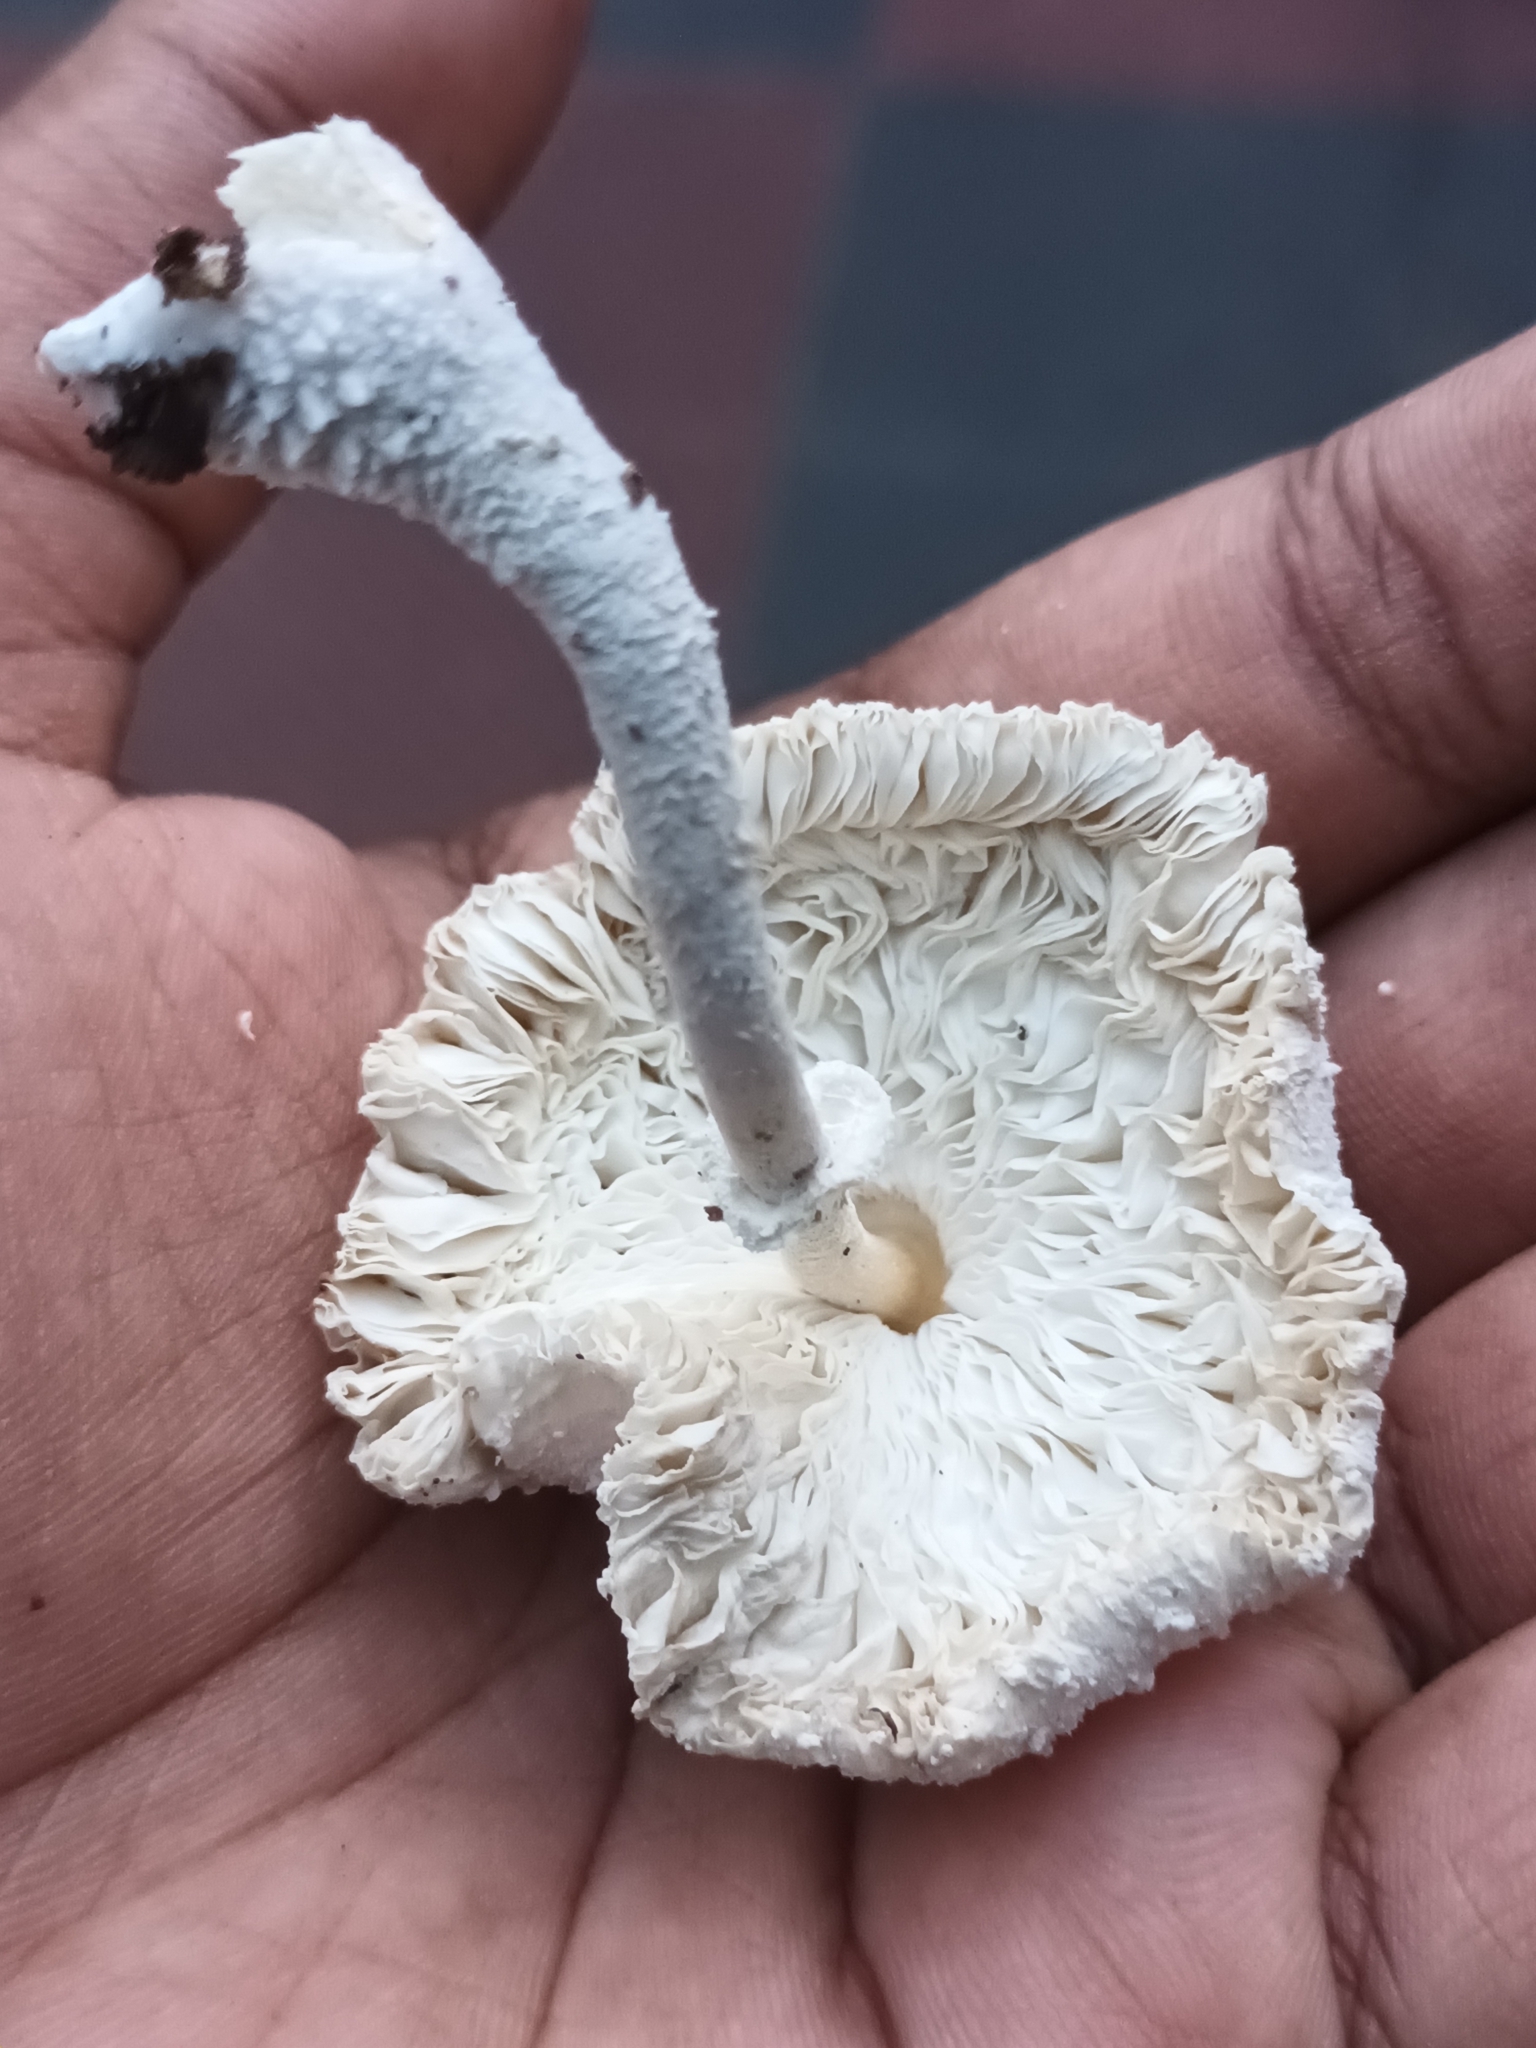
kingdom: Fungi
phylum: Basidiomycota
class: Agaricomycetes
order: Agaricales
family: Agaricaceae
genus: Leucocoprinus
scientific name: Leucocoprinus cretaceus
